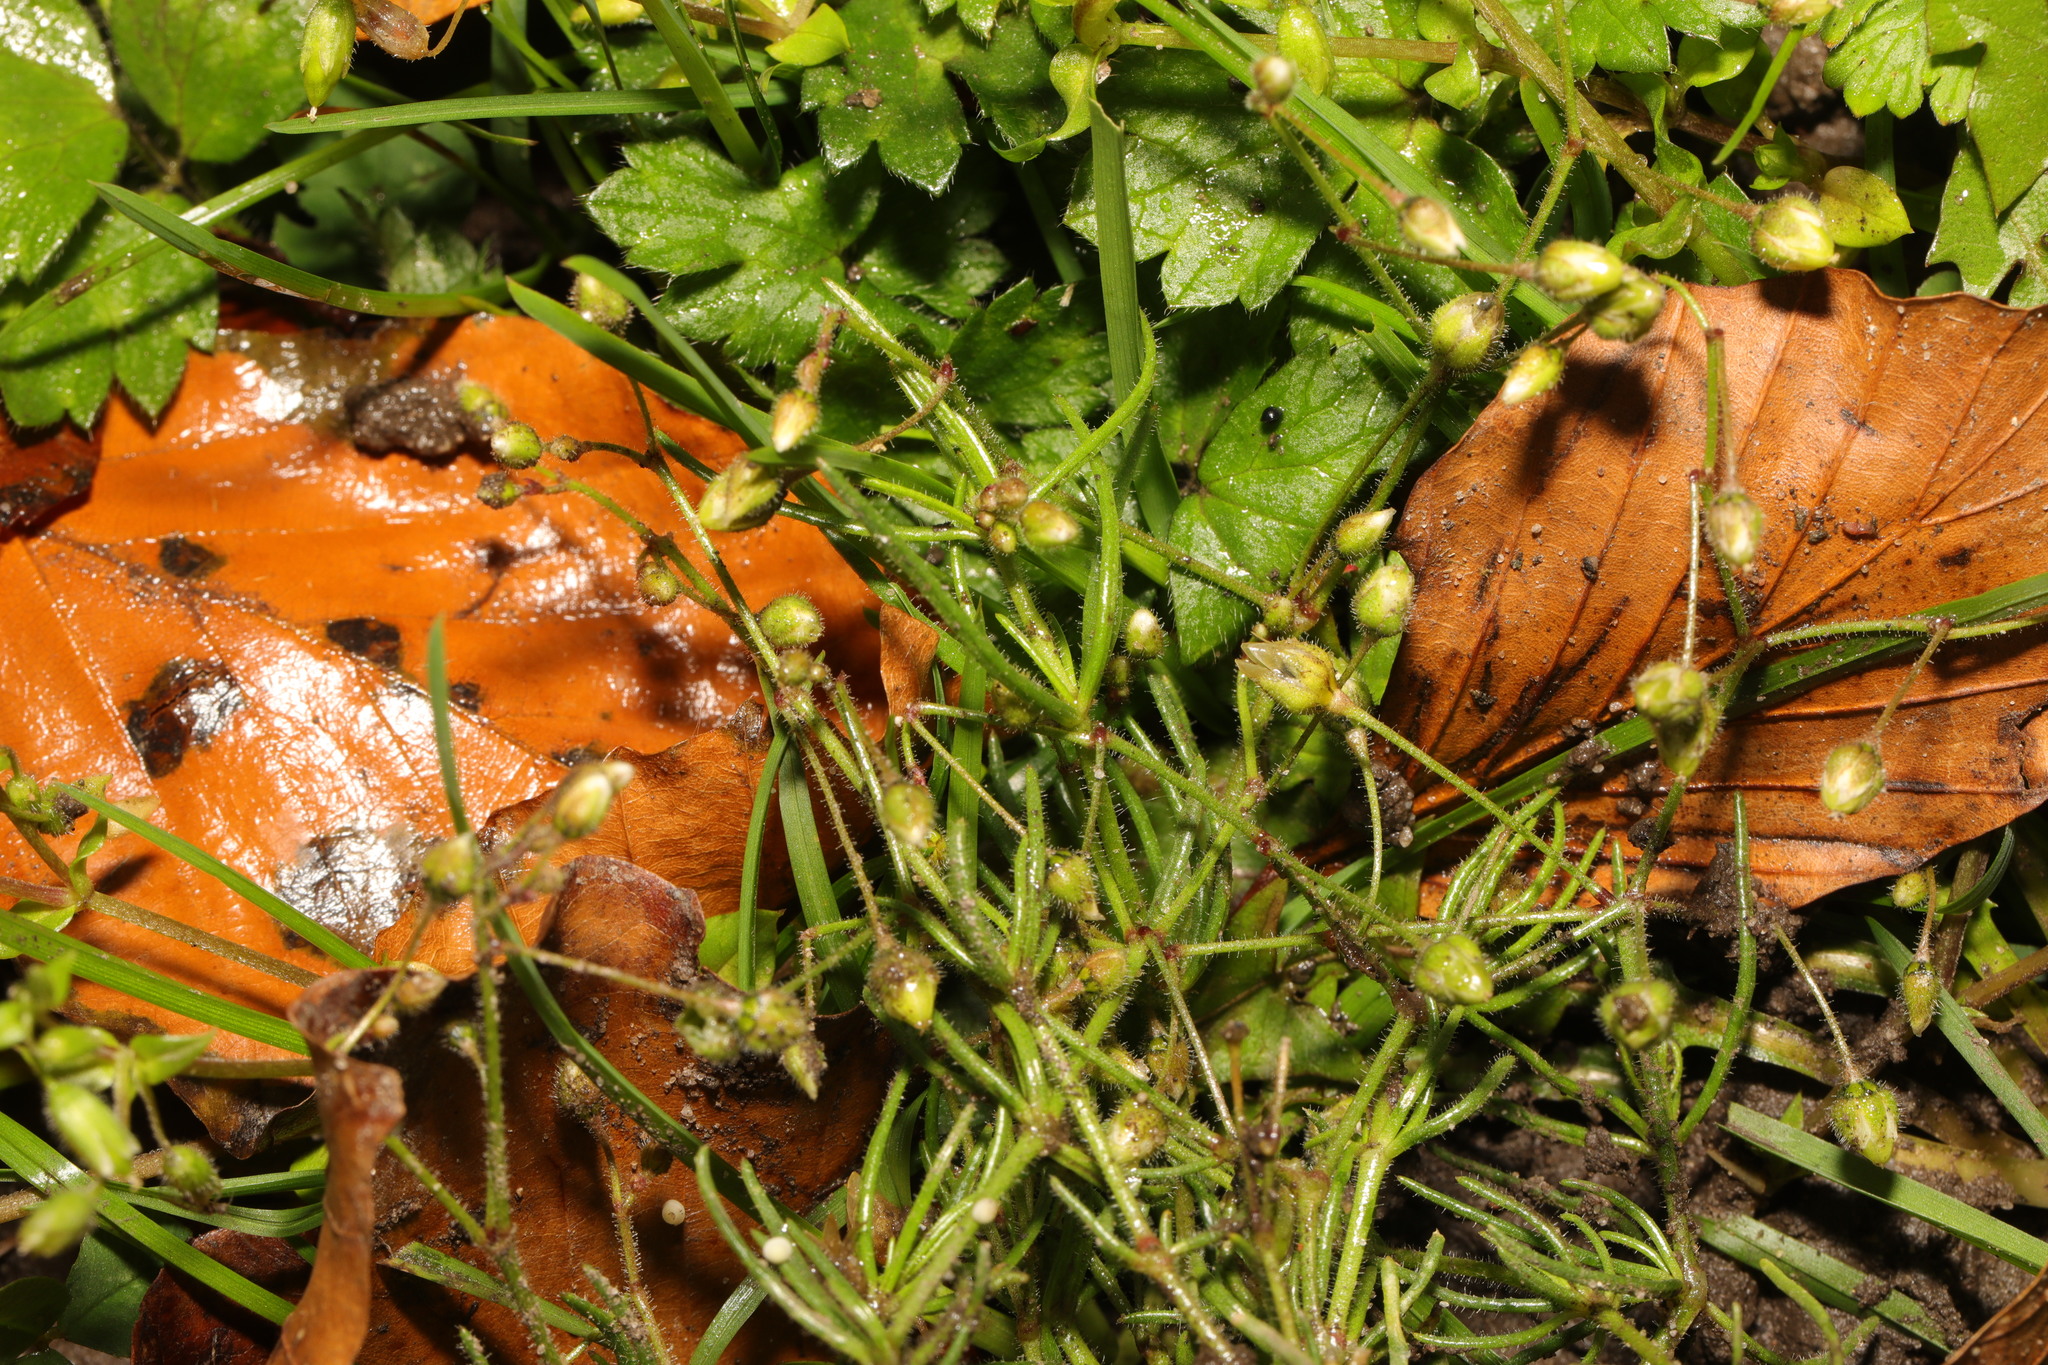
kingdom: Plantae
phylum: Tracheophyta
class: Magnoliopsida
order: Caryophyllales
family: Caryophyllaceae
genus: Spergula
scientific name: Spergula arvensis
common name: Corn spurrey
